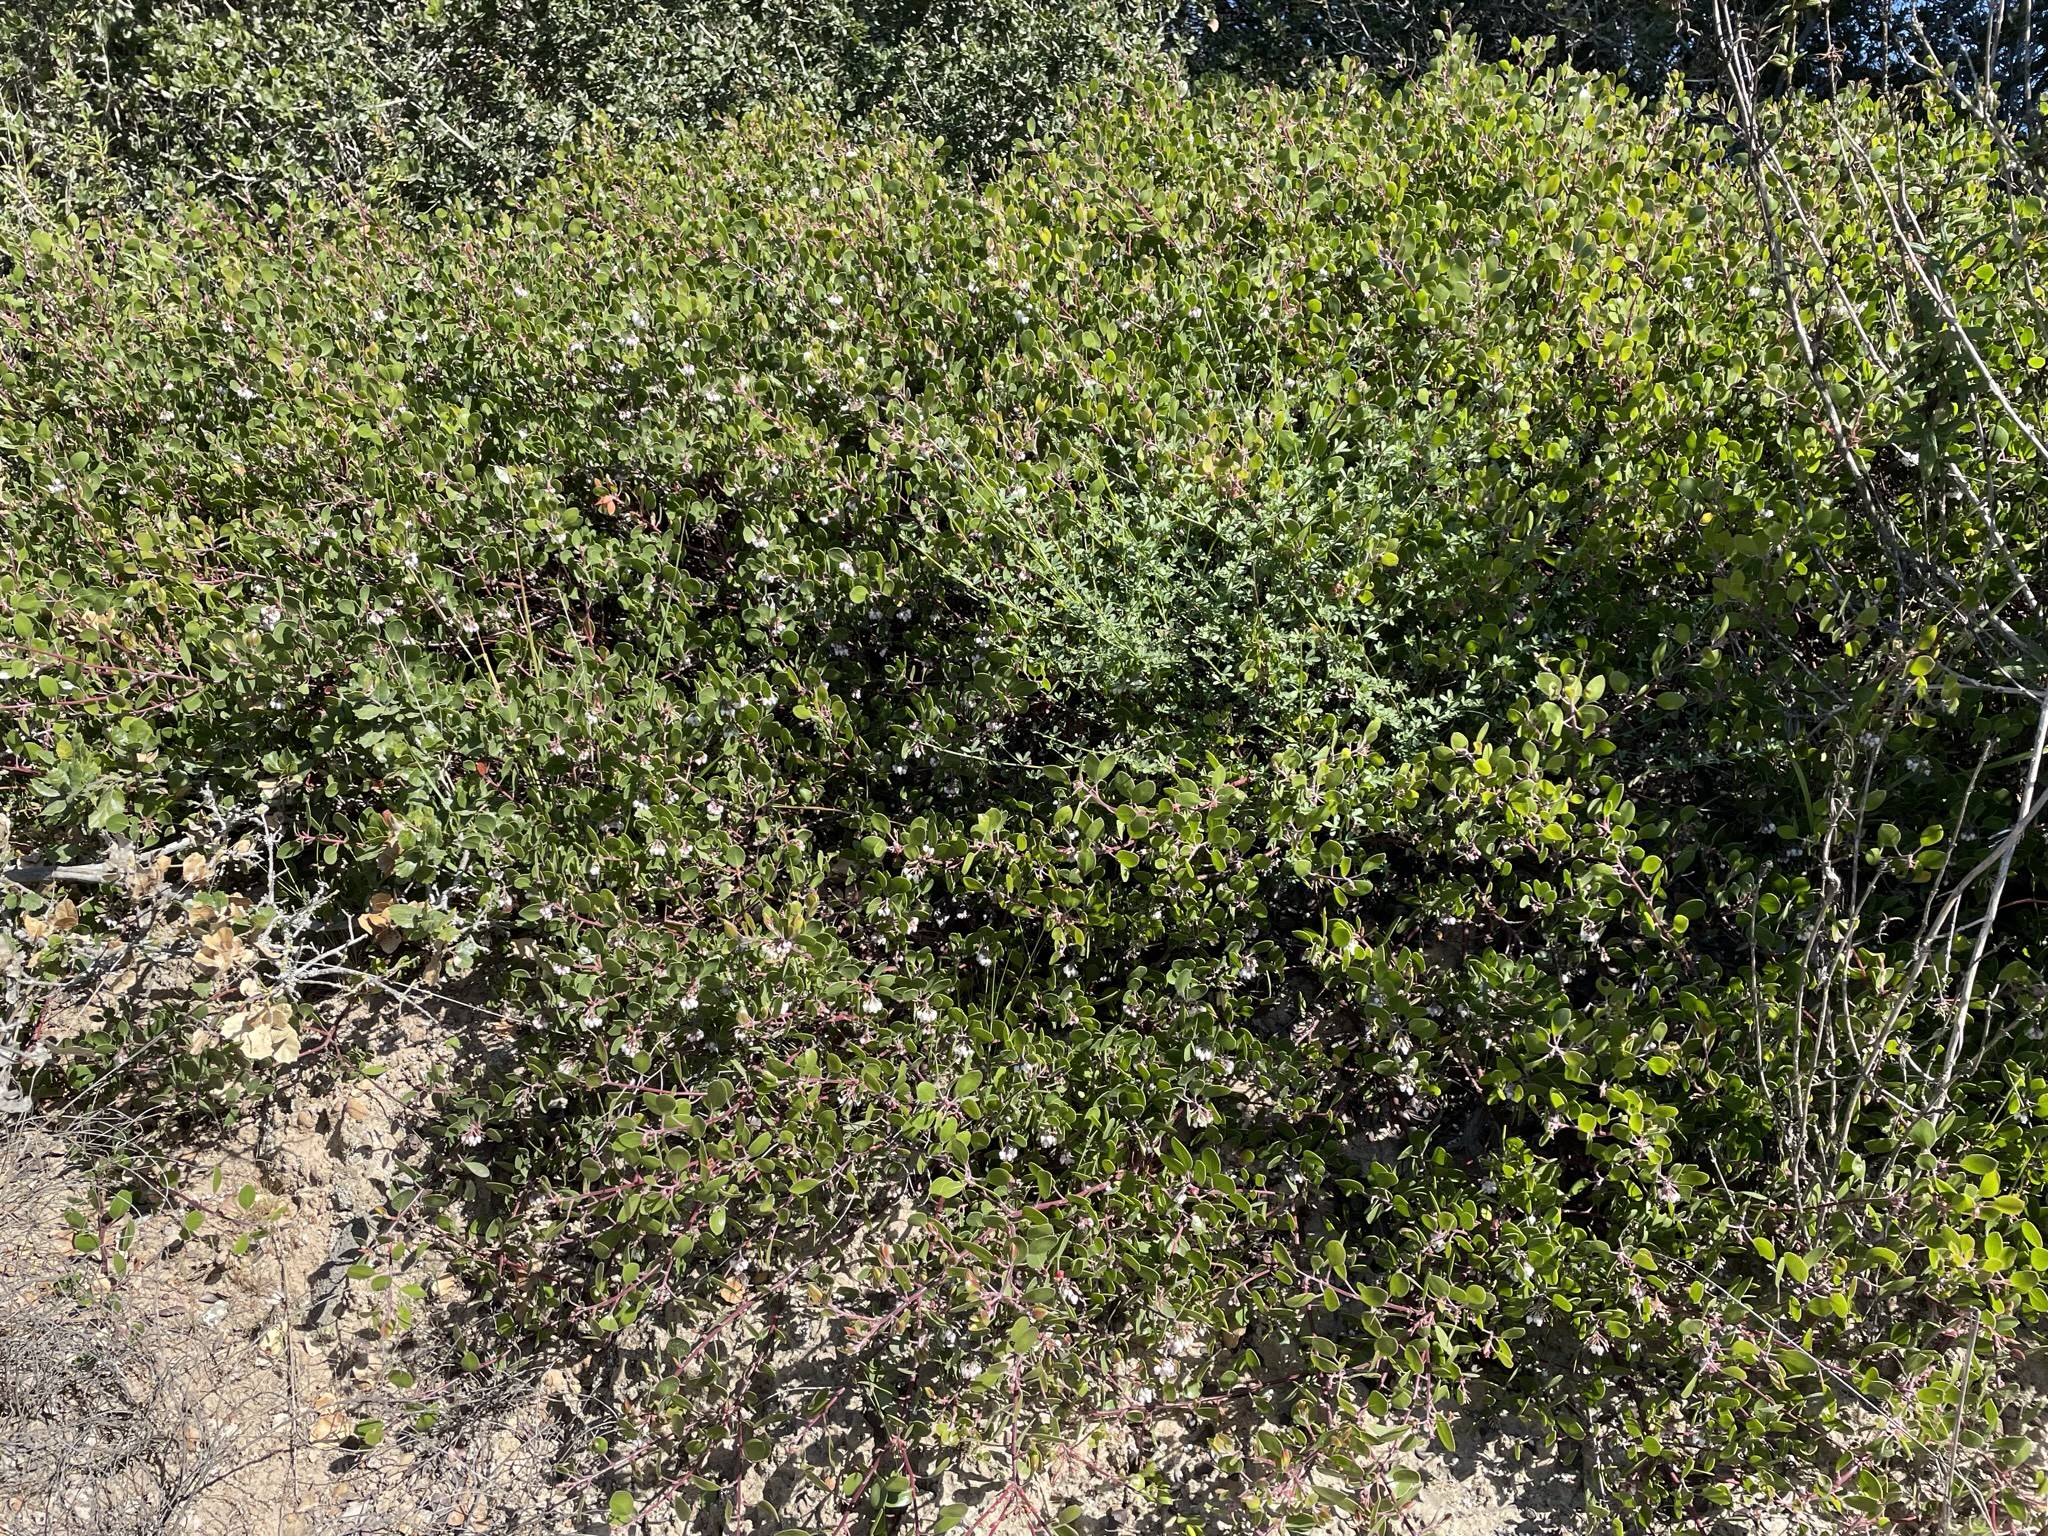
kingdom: Plantae
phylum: Tracheophyta
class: Magnoliopsida
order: Ericales
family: Ericaceae
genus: Arctostaphylos
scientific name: Arctostaphylos hookeri
